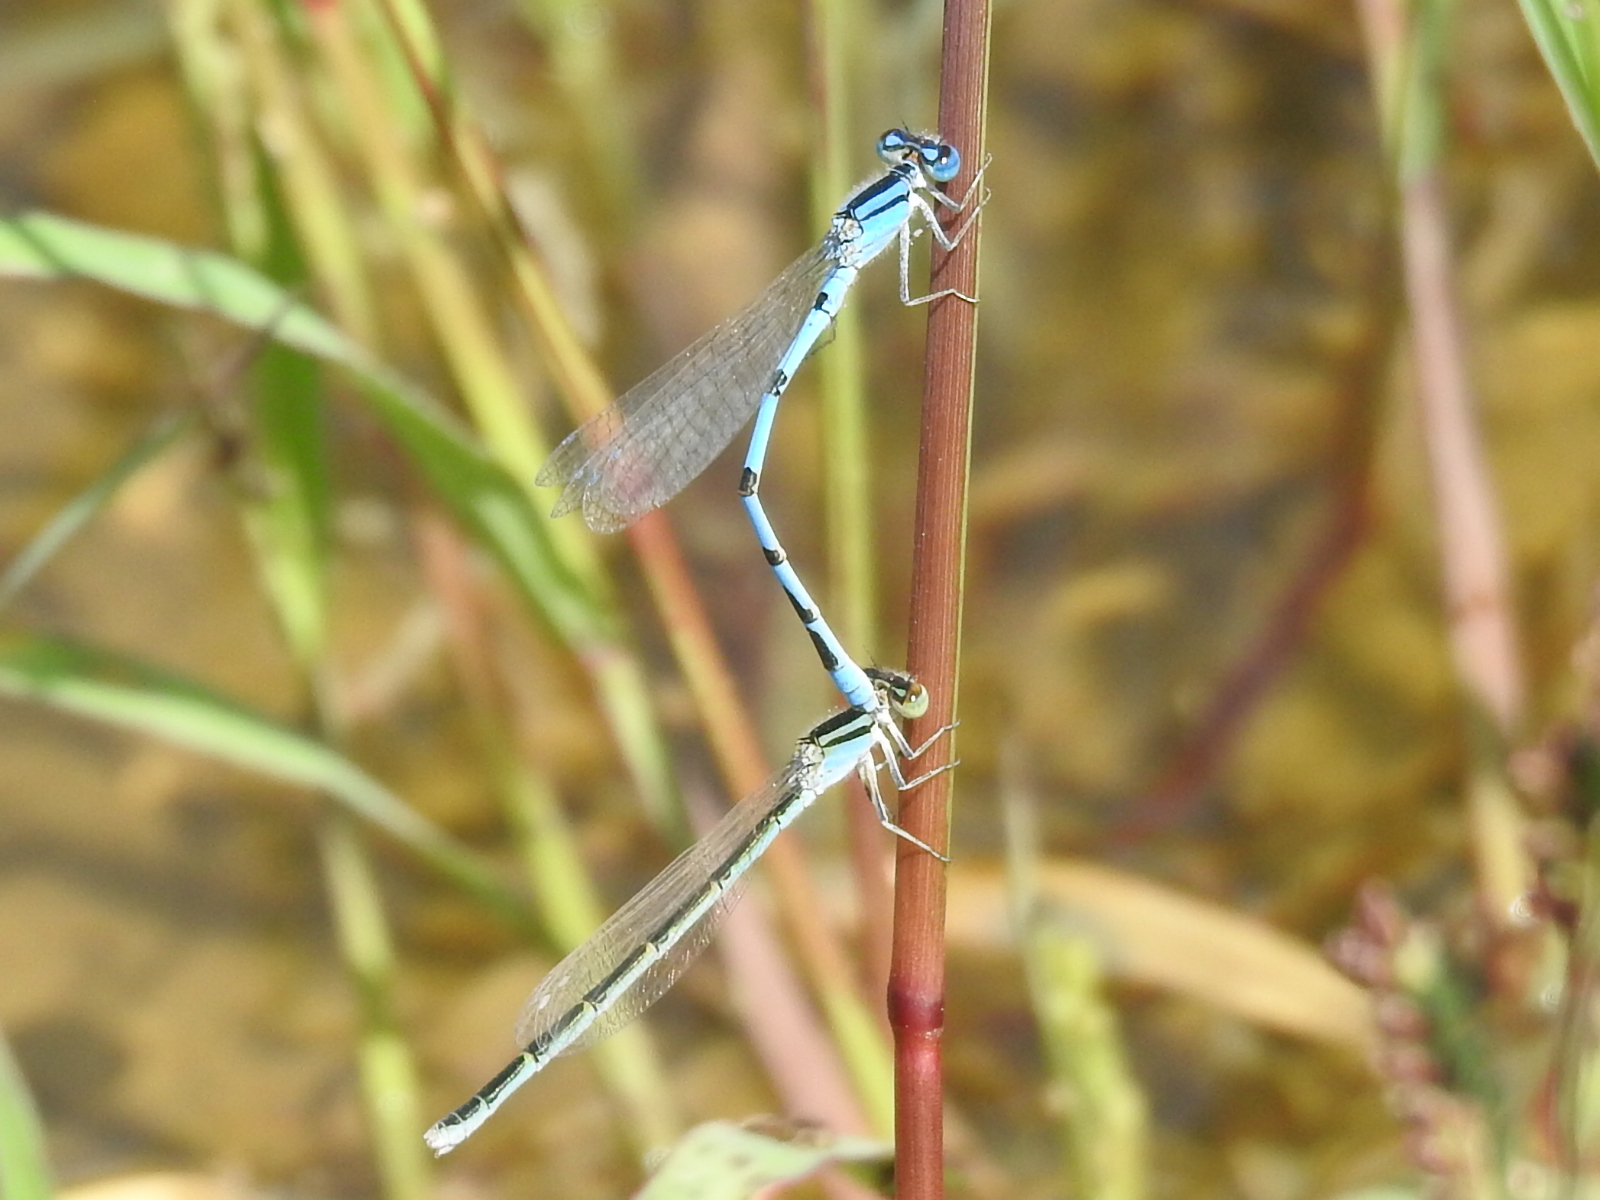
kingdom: Animalia
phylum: Arthropoda
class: Insecta
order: Odonata
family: Coenagrionidae
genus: Enallagma
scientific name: Enallagma civile
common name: Damselfly
